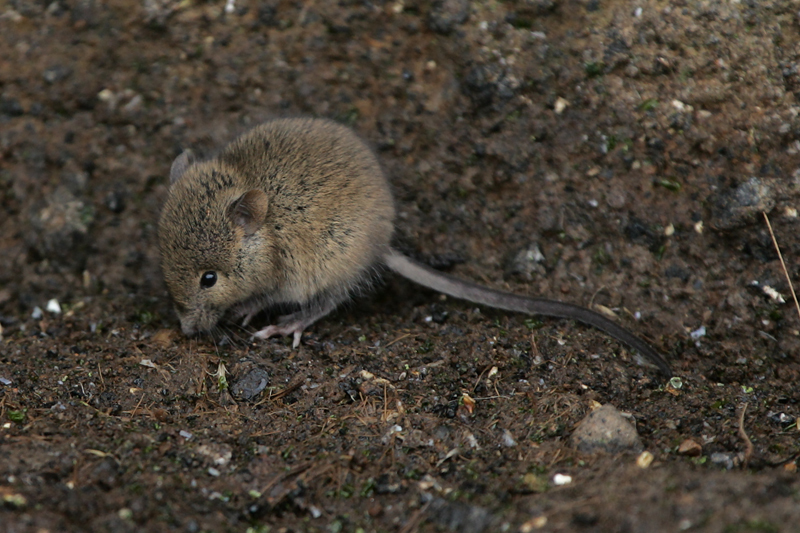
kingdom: Animalia
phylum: Chordata
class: Mammalia
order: Rodentia
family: Muridae
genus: Mus
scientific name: Mus musculus
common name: House mouse
